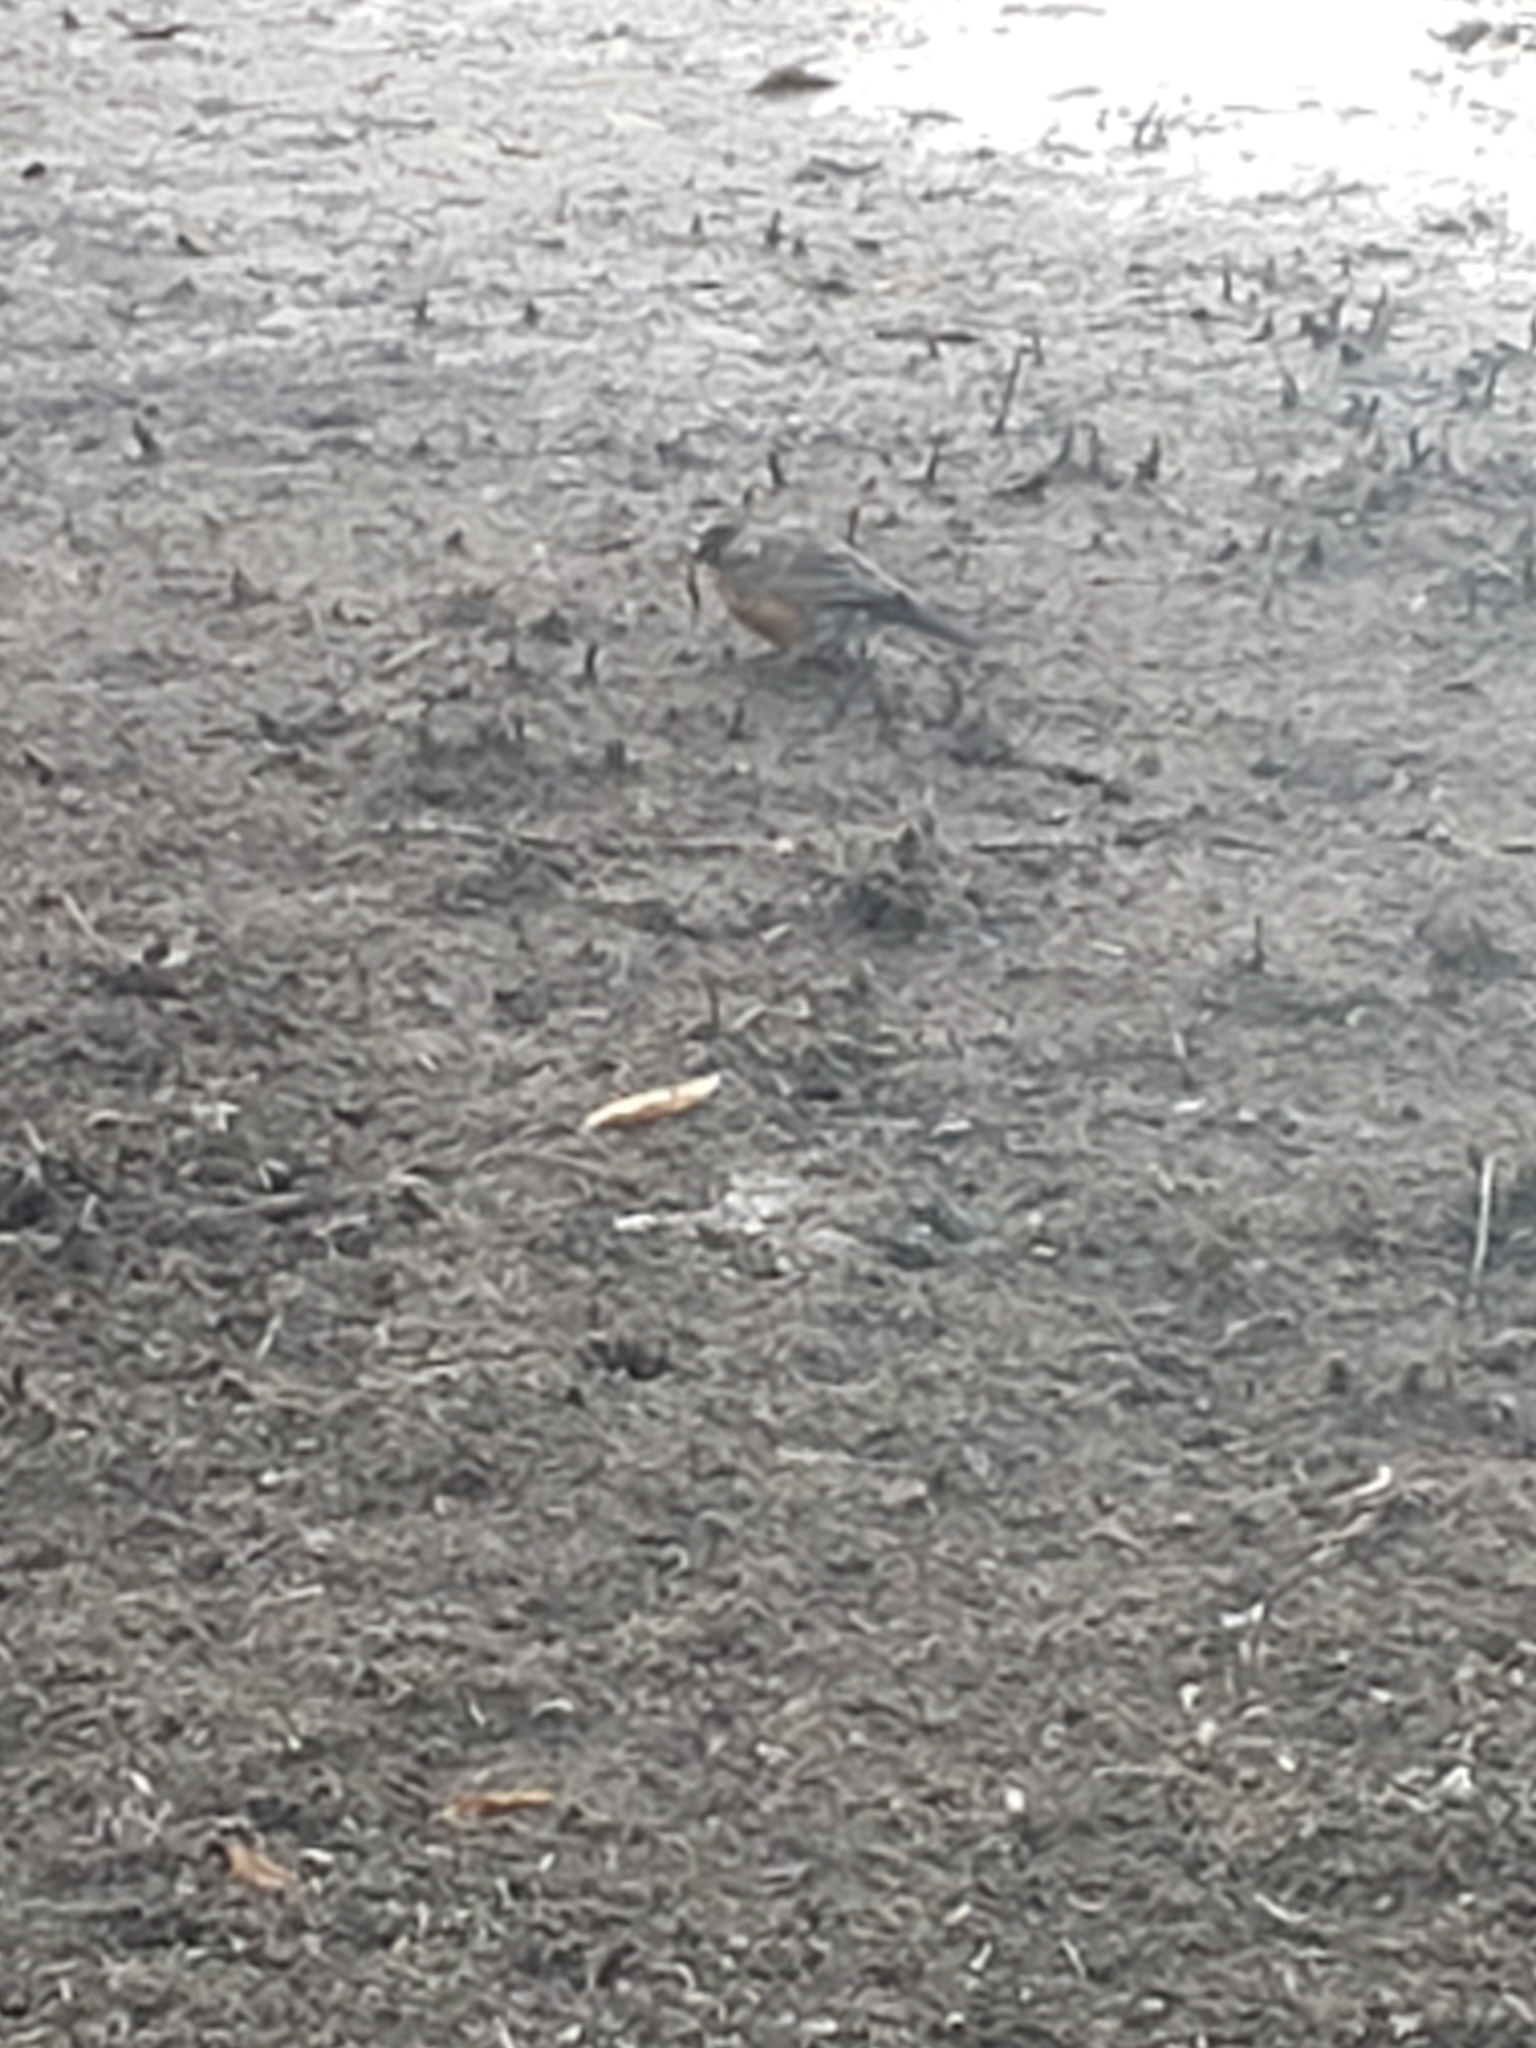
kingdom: Animalia
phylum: Chordata
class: Aves
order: Passeriformes
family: Turdidae
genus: Turdus
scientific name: Turdus migratorius
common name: American robin
